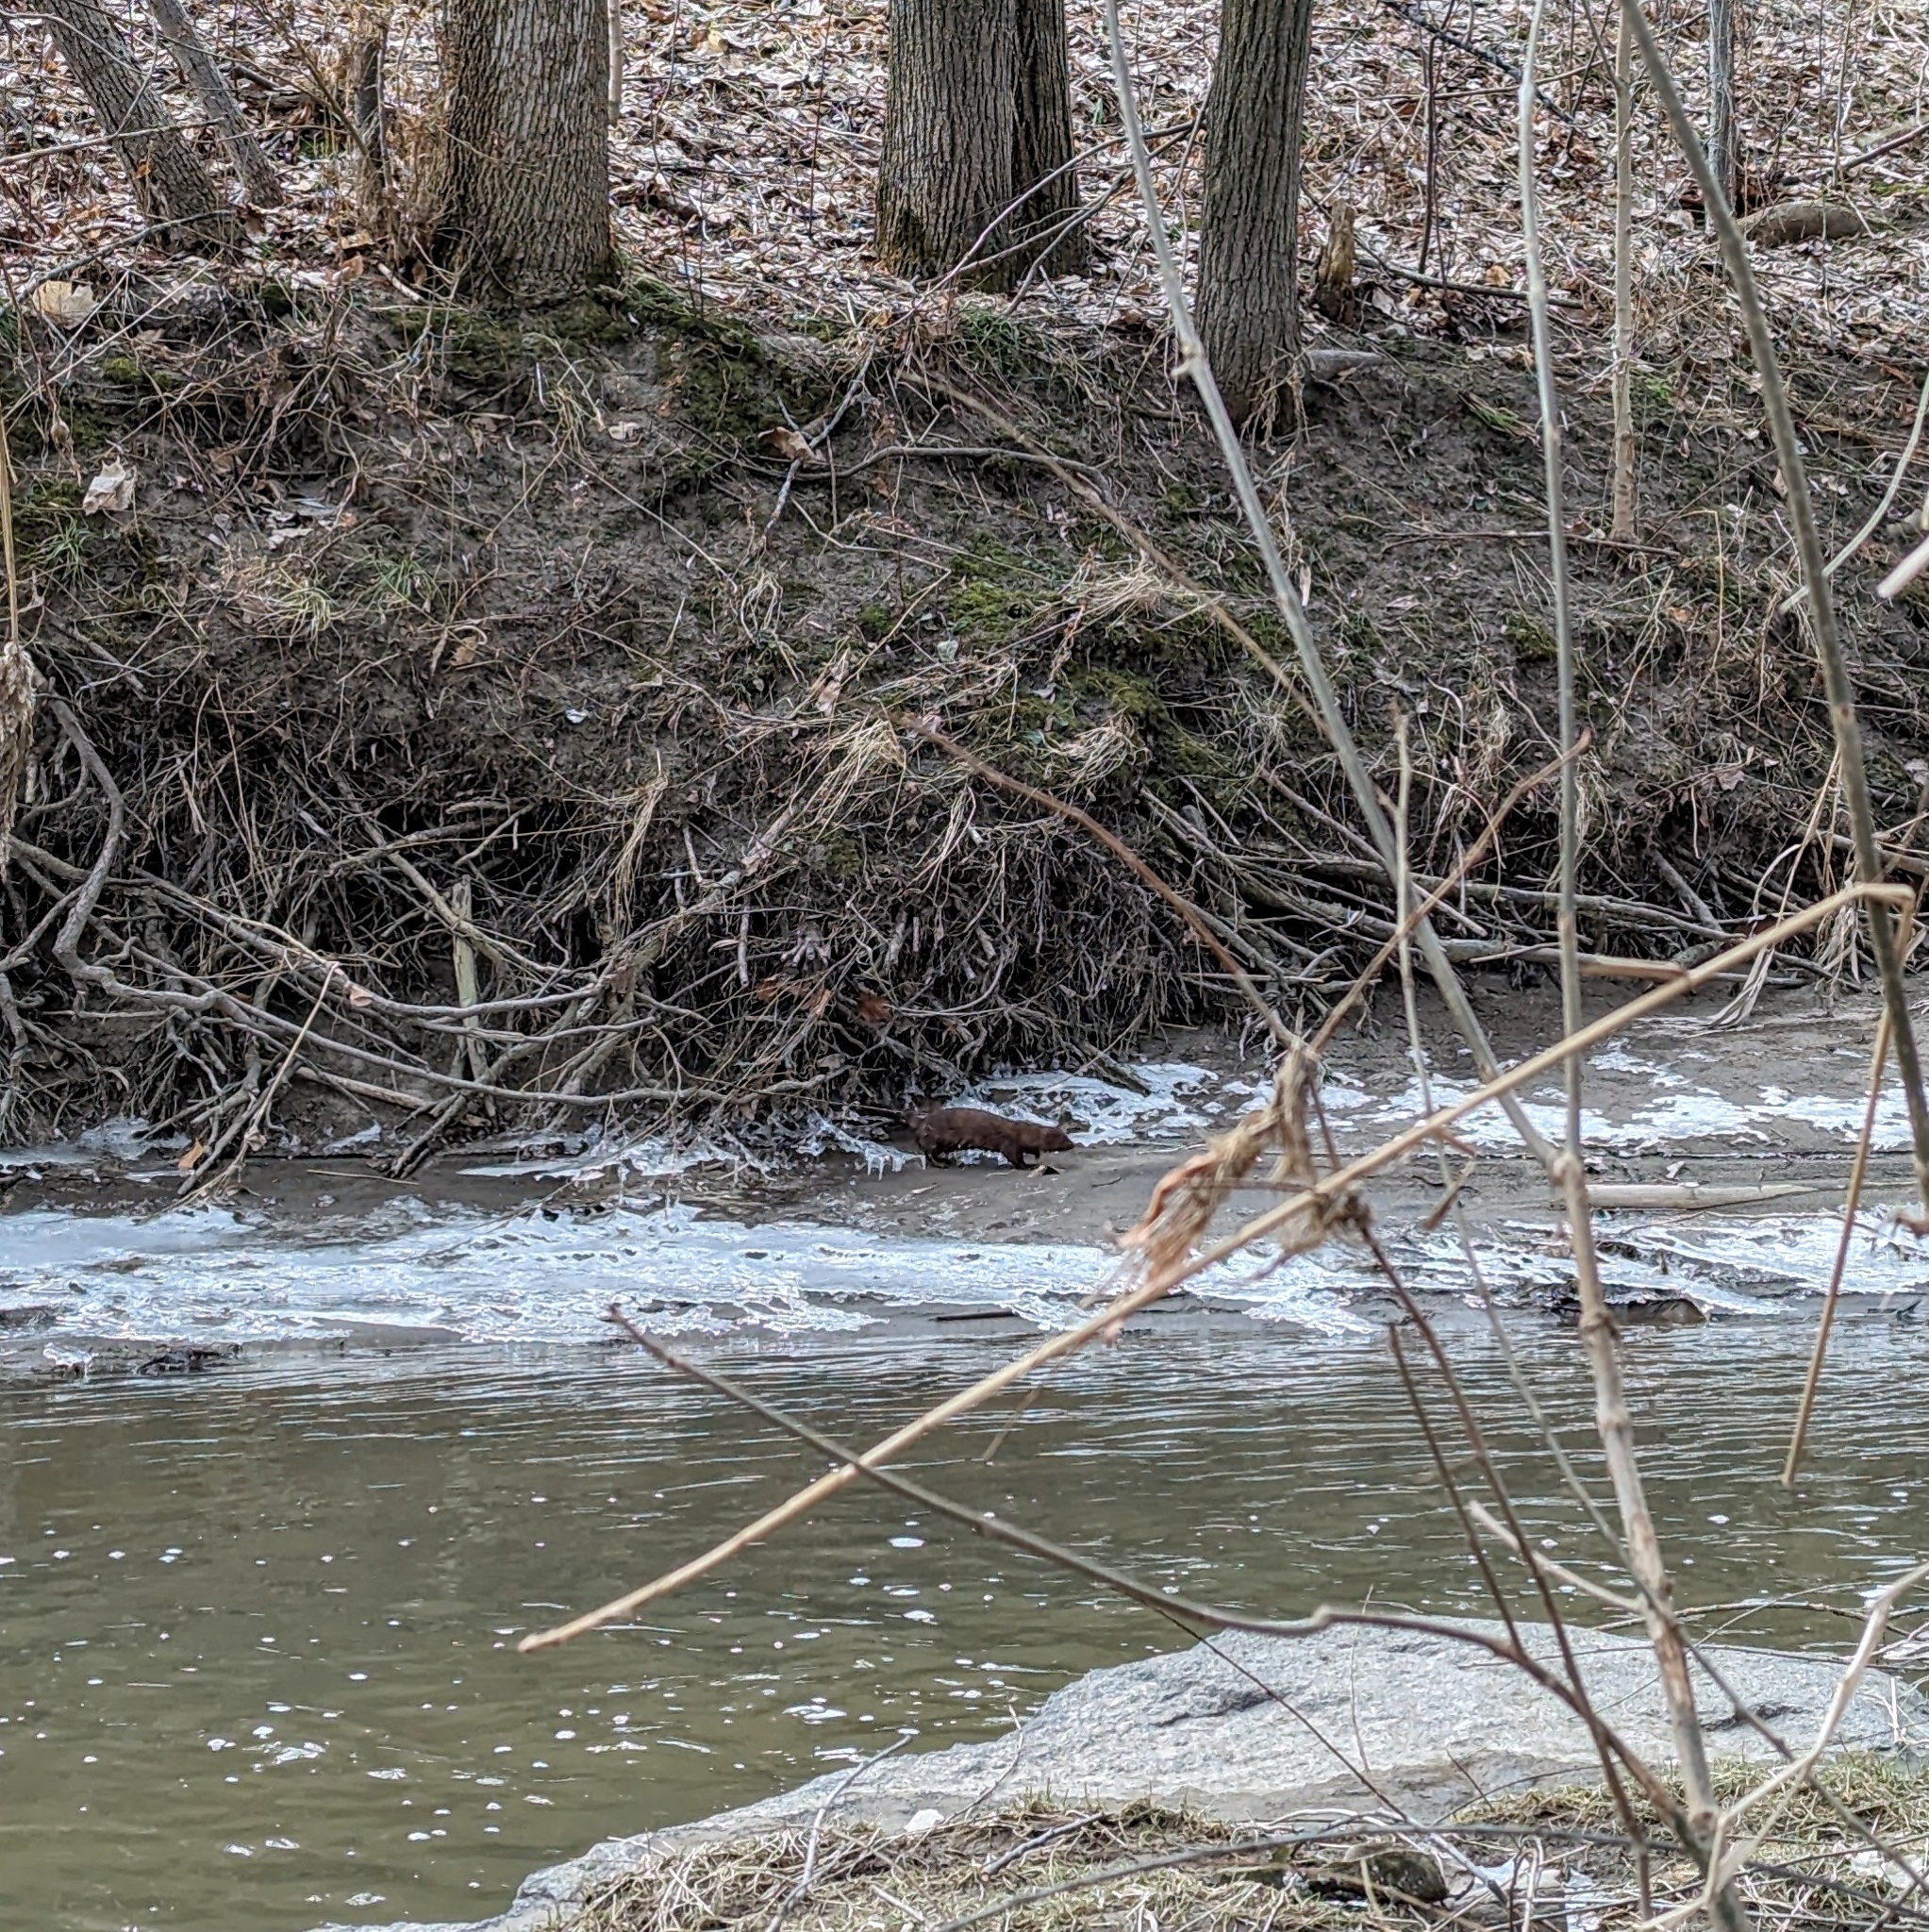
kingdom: Animalia
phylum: Chordata
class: Mammalia
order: Carnivora
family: Mustelidae
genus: Mustela
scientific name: Mustela
